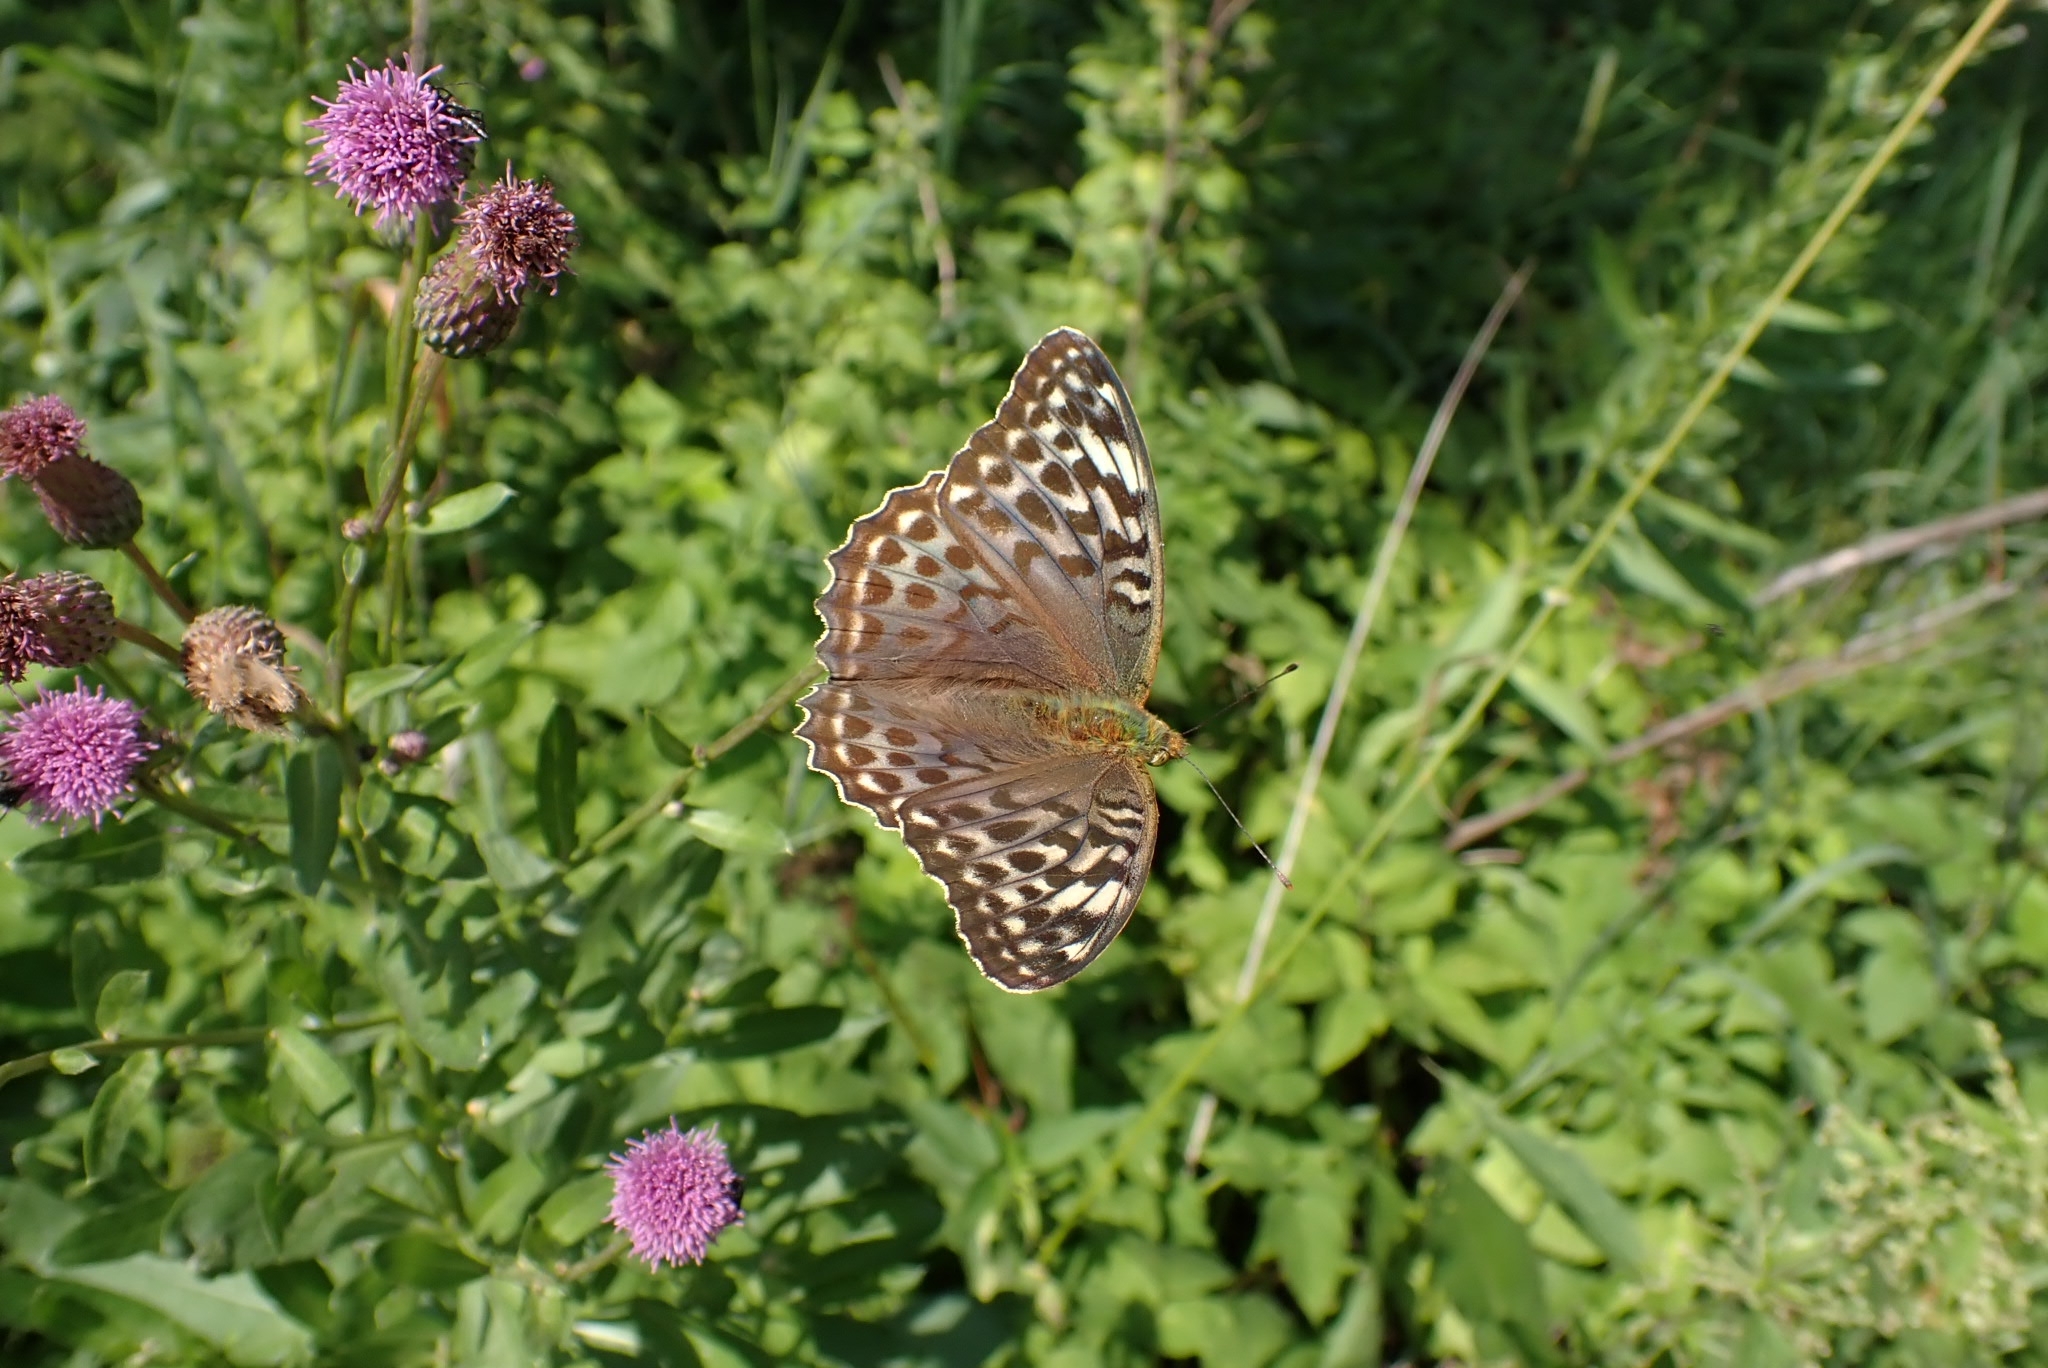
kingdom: Animalia
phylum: Arthropoda
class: Insecta
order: Lepidoptera
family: Nymphalidae
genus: Argynnis
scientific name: Argynnis paphia
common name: Silver-washed fritillary
